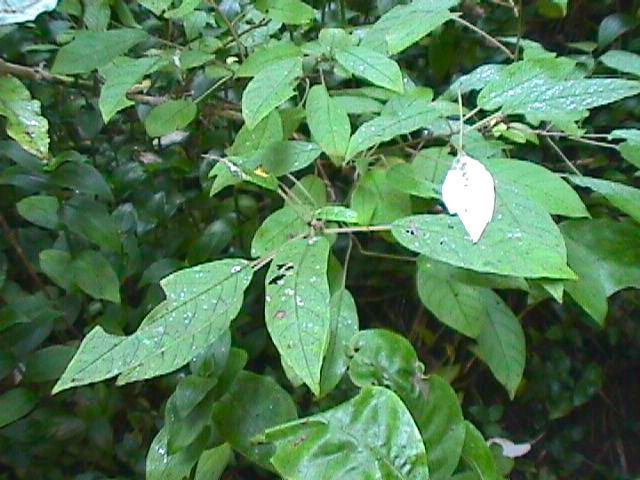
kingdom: Plantae
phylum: Tracheophyta
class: Magnoliopsida
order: Myrtales
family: Onagraceae
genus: Fuchsia
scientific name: Fuchsia excorticata
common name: Tree fuchsia
